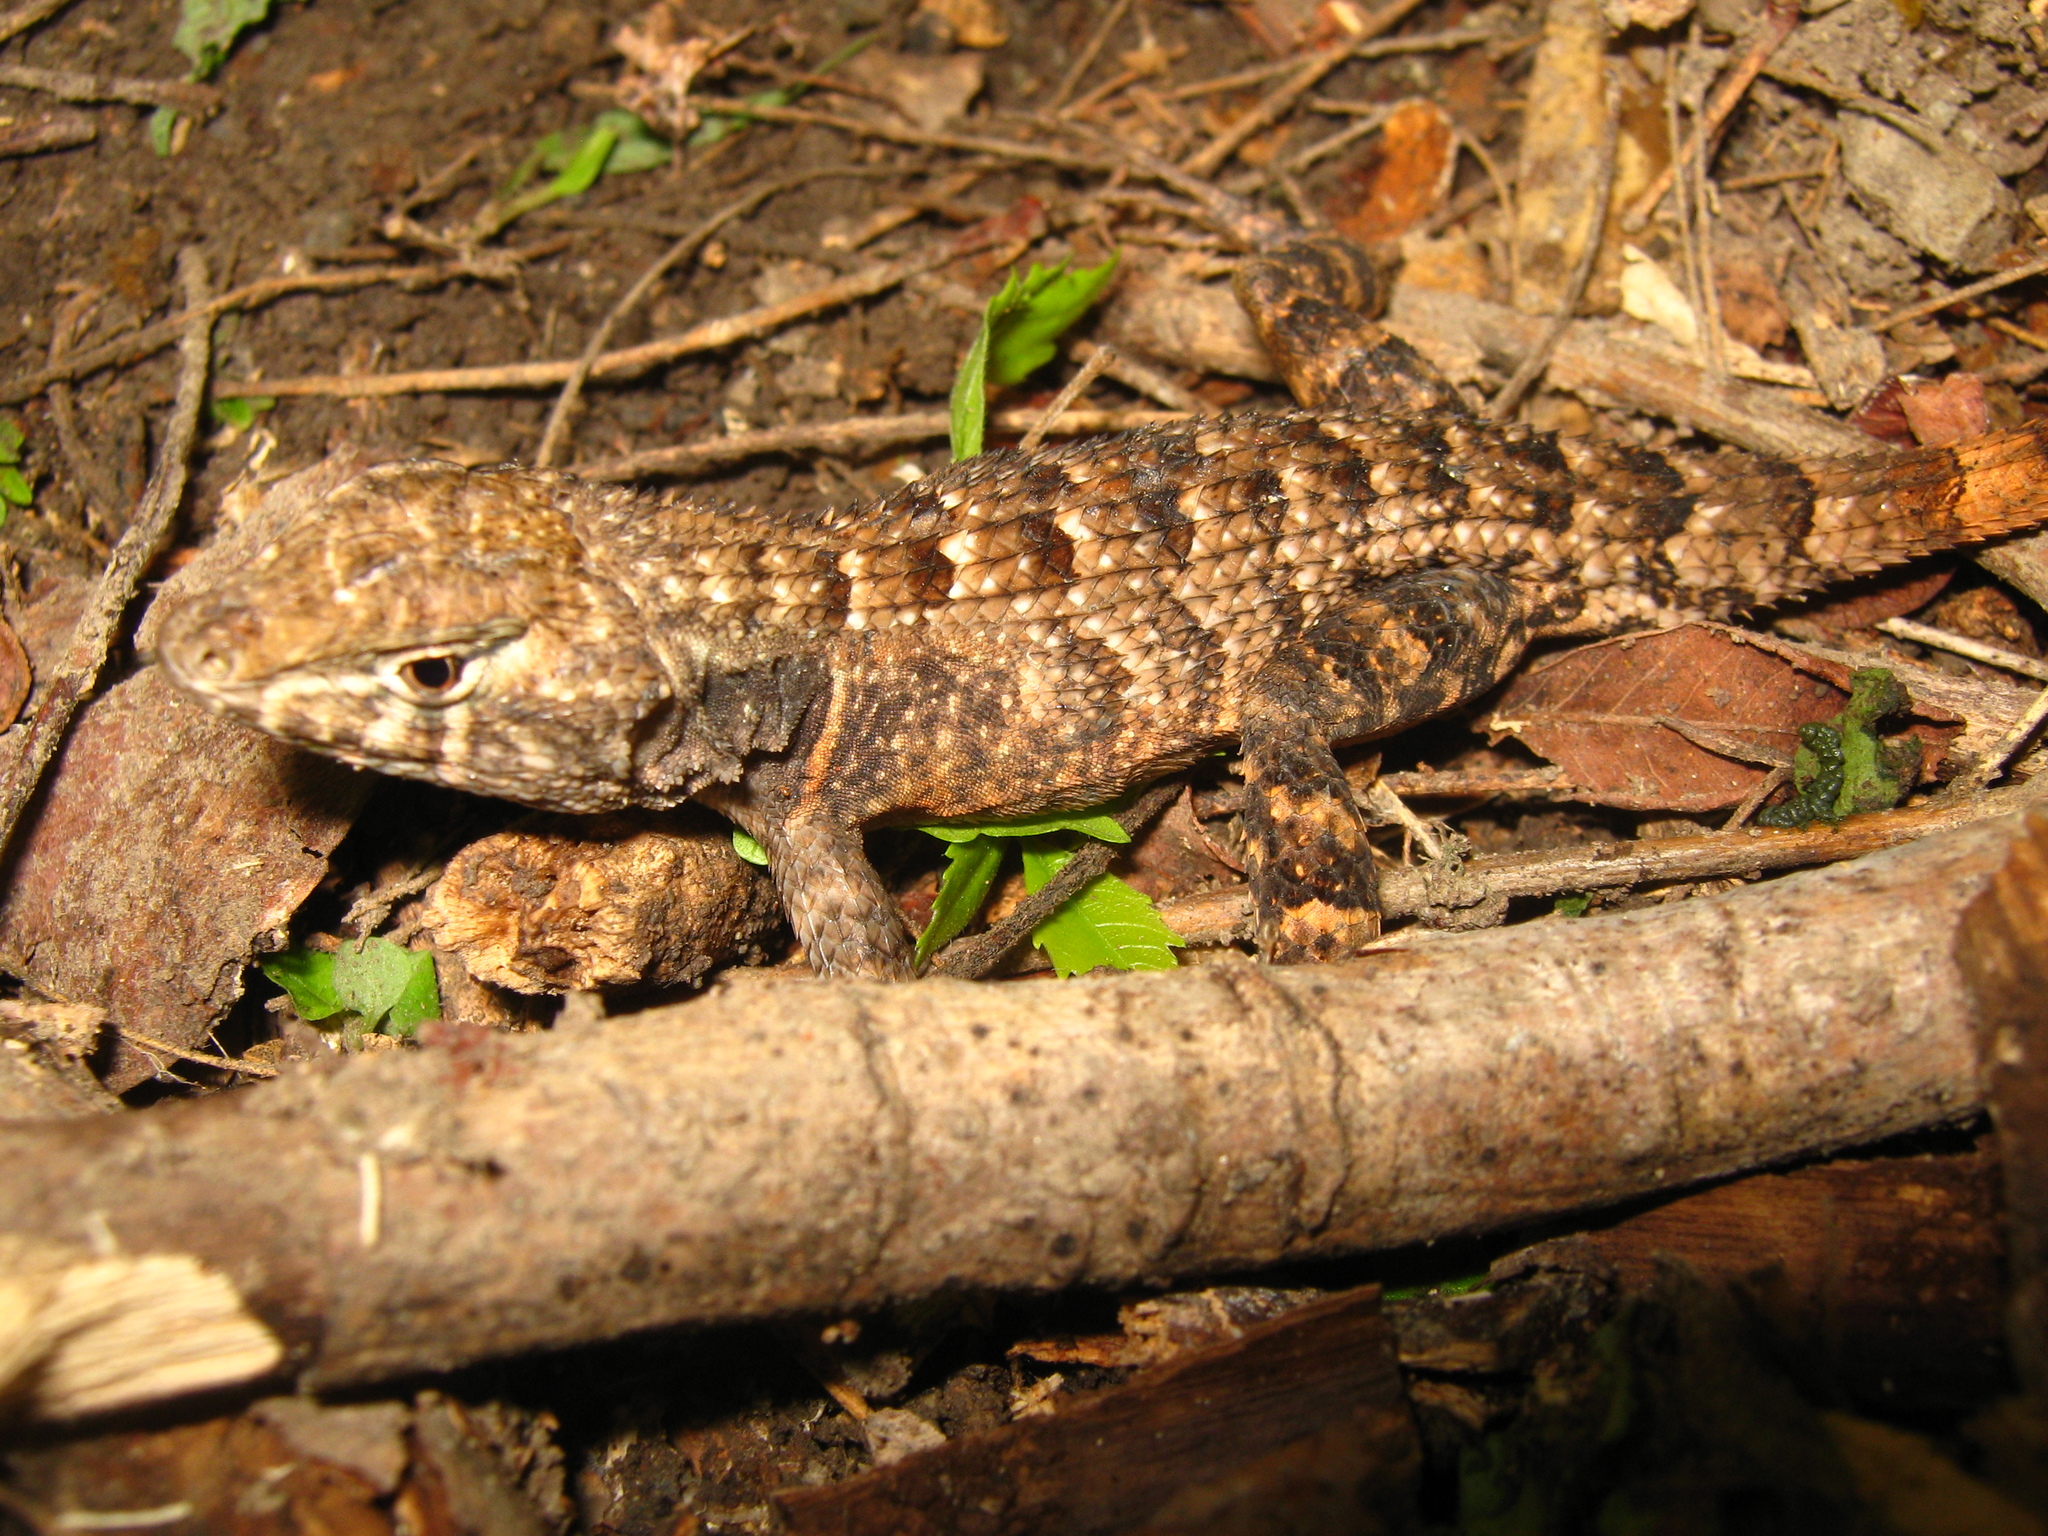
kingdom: Animalia
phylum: Chordata
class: Squamata
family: Phrynosomatidae
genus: Sceloporus
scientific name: Sceloporus utiformis
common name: Antesator
